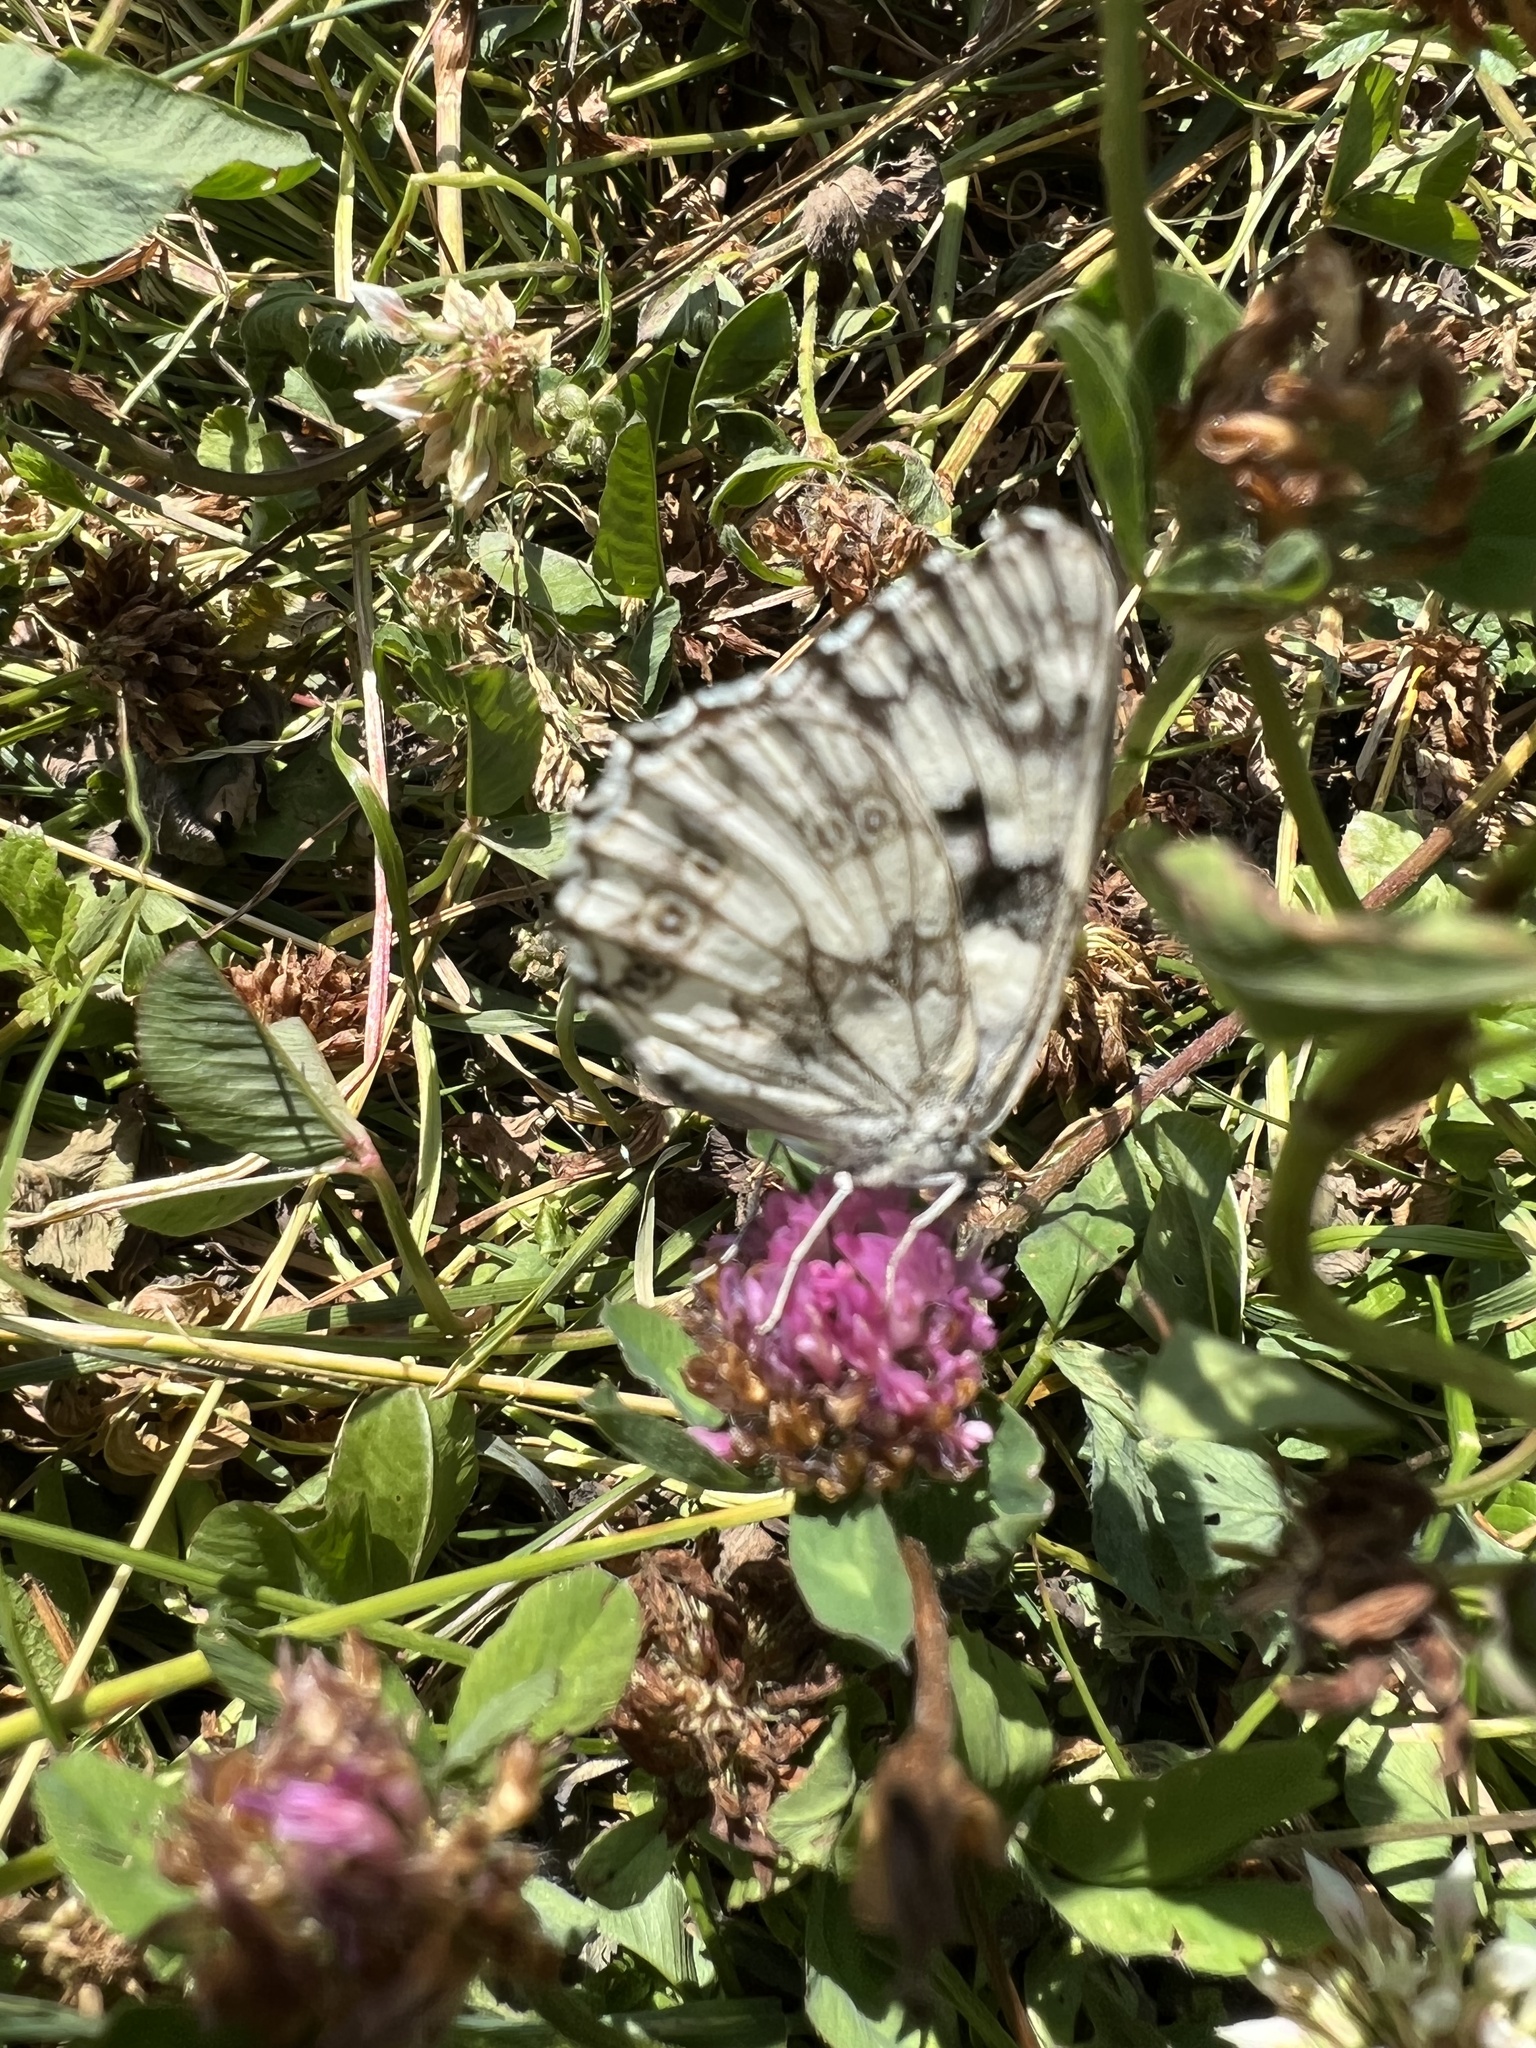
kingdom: Animalia
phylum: Arthropoda
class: Insecta
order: Lepidoptera
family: Nymphalidae
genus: Melanargia
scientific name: Melanargia galathea
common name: Marbled white
